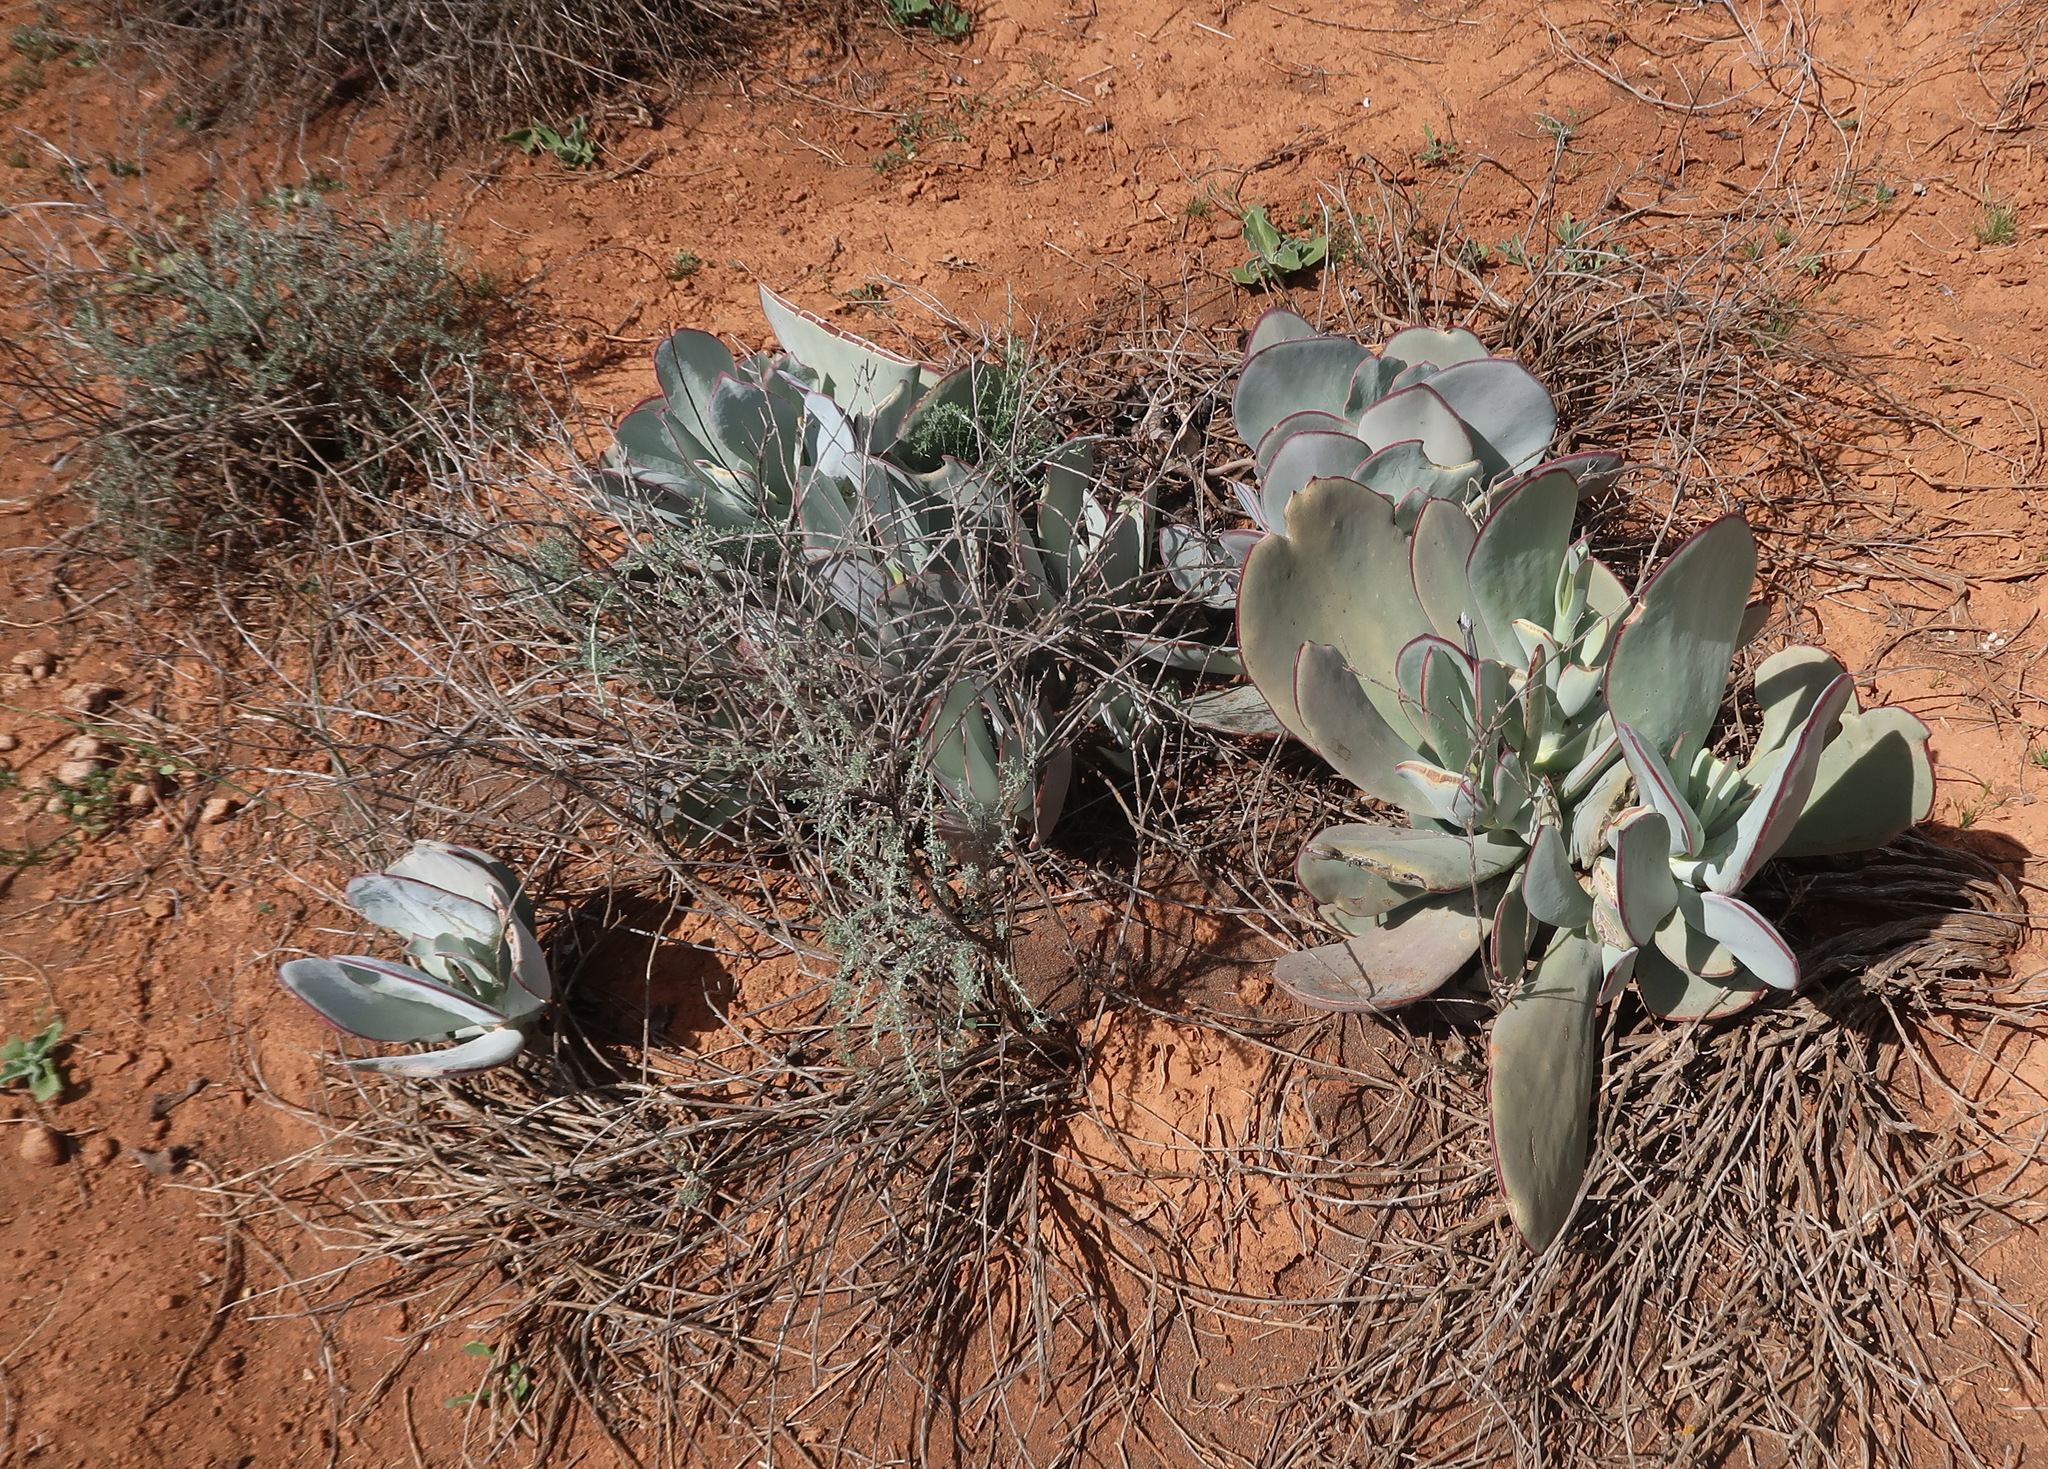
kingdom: Plantae
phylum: Tracheophyta
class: Magnoliopsida
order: Saxifragales
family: Crassulaceae
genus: Cotyledon
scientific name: Cotyledon orbiculata
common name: Pig's ear
